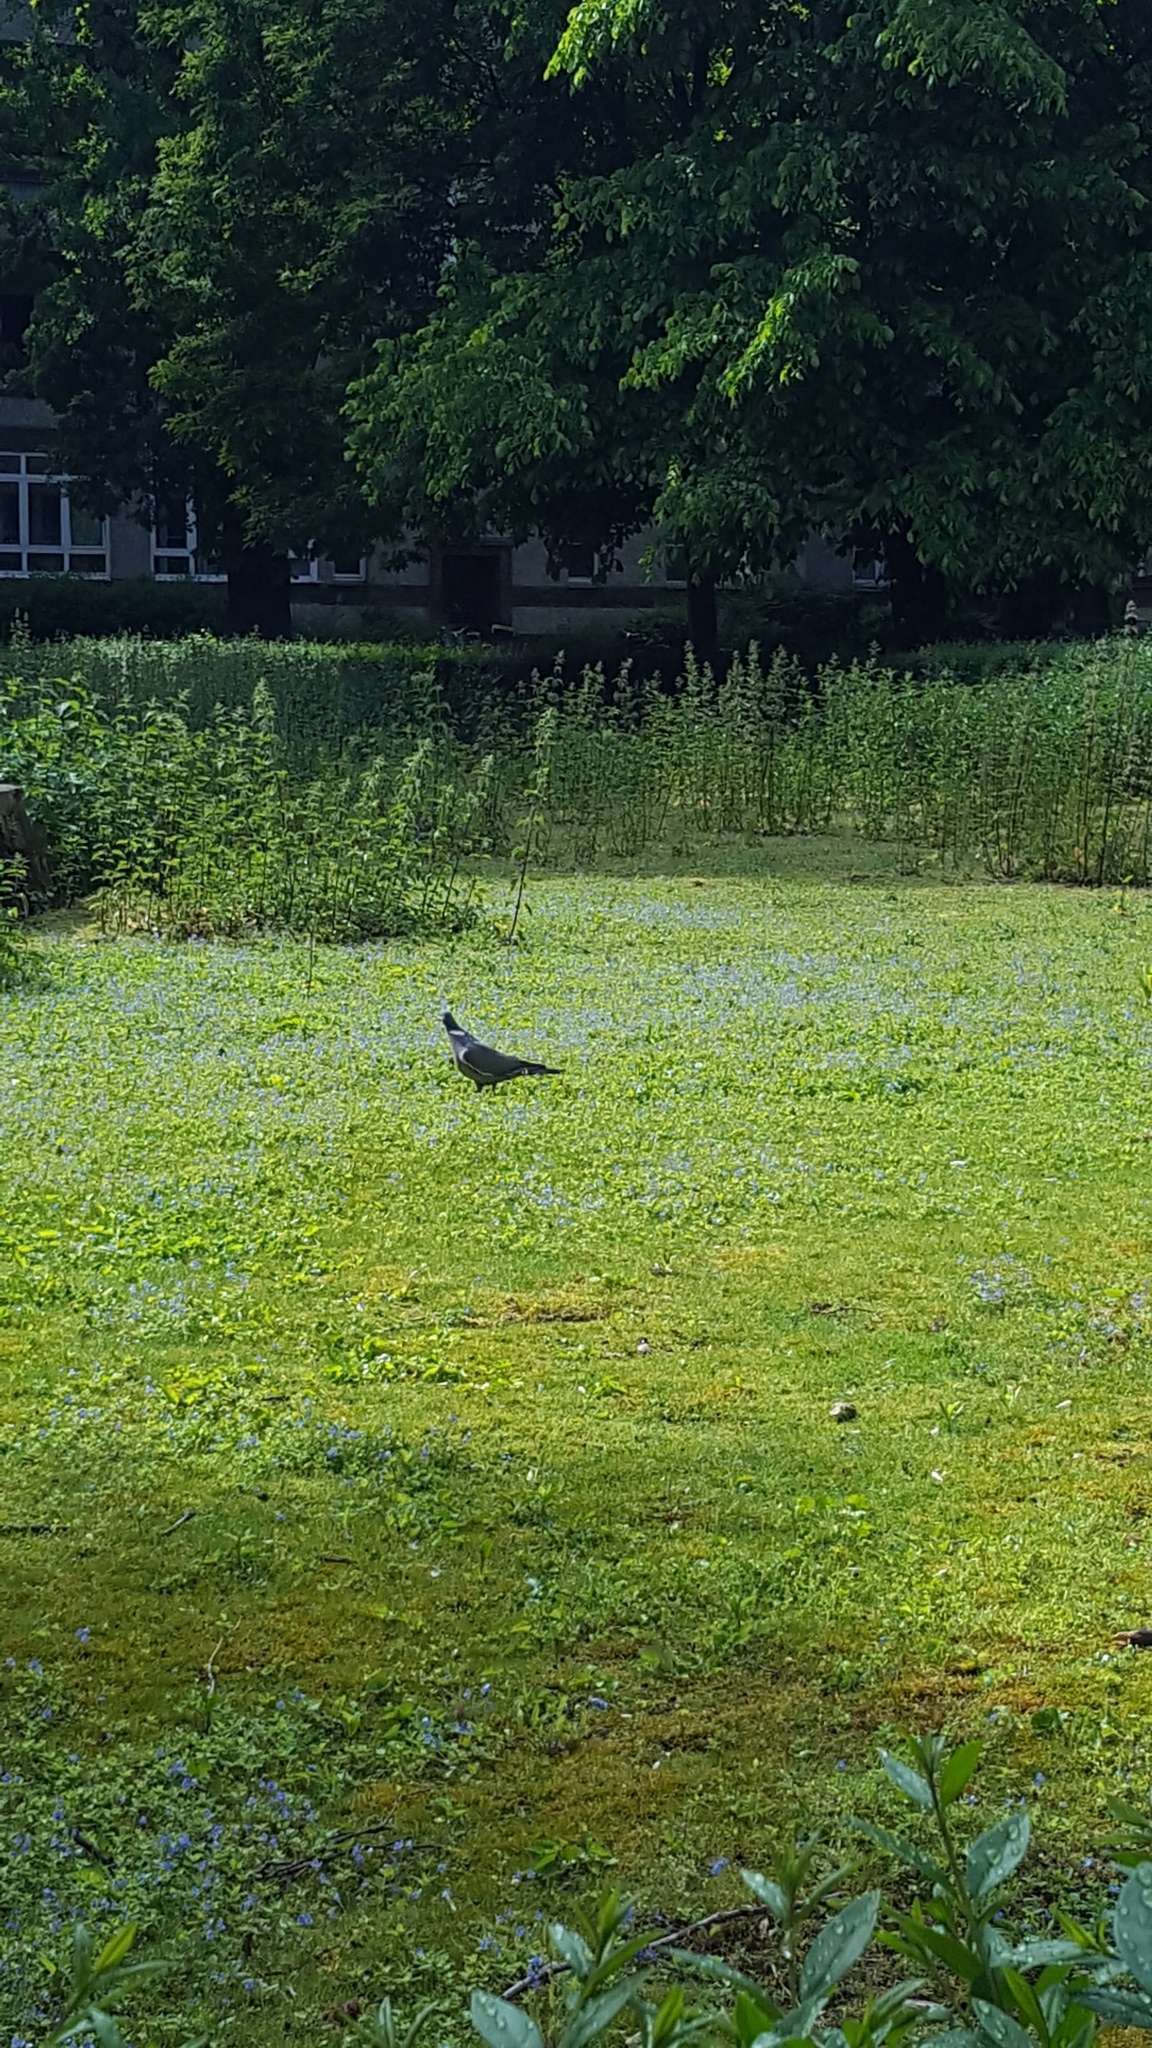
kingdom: Animalia
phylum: Chordata
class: Aves
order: Columbiformes
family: Columbidae
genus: Columba
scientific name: Columba palumbus
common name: Common wood pigeon
